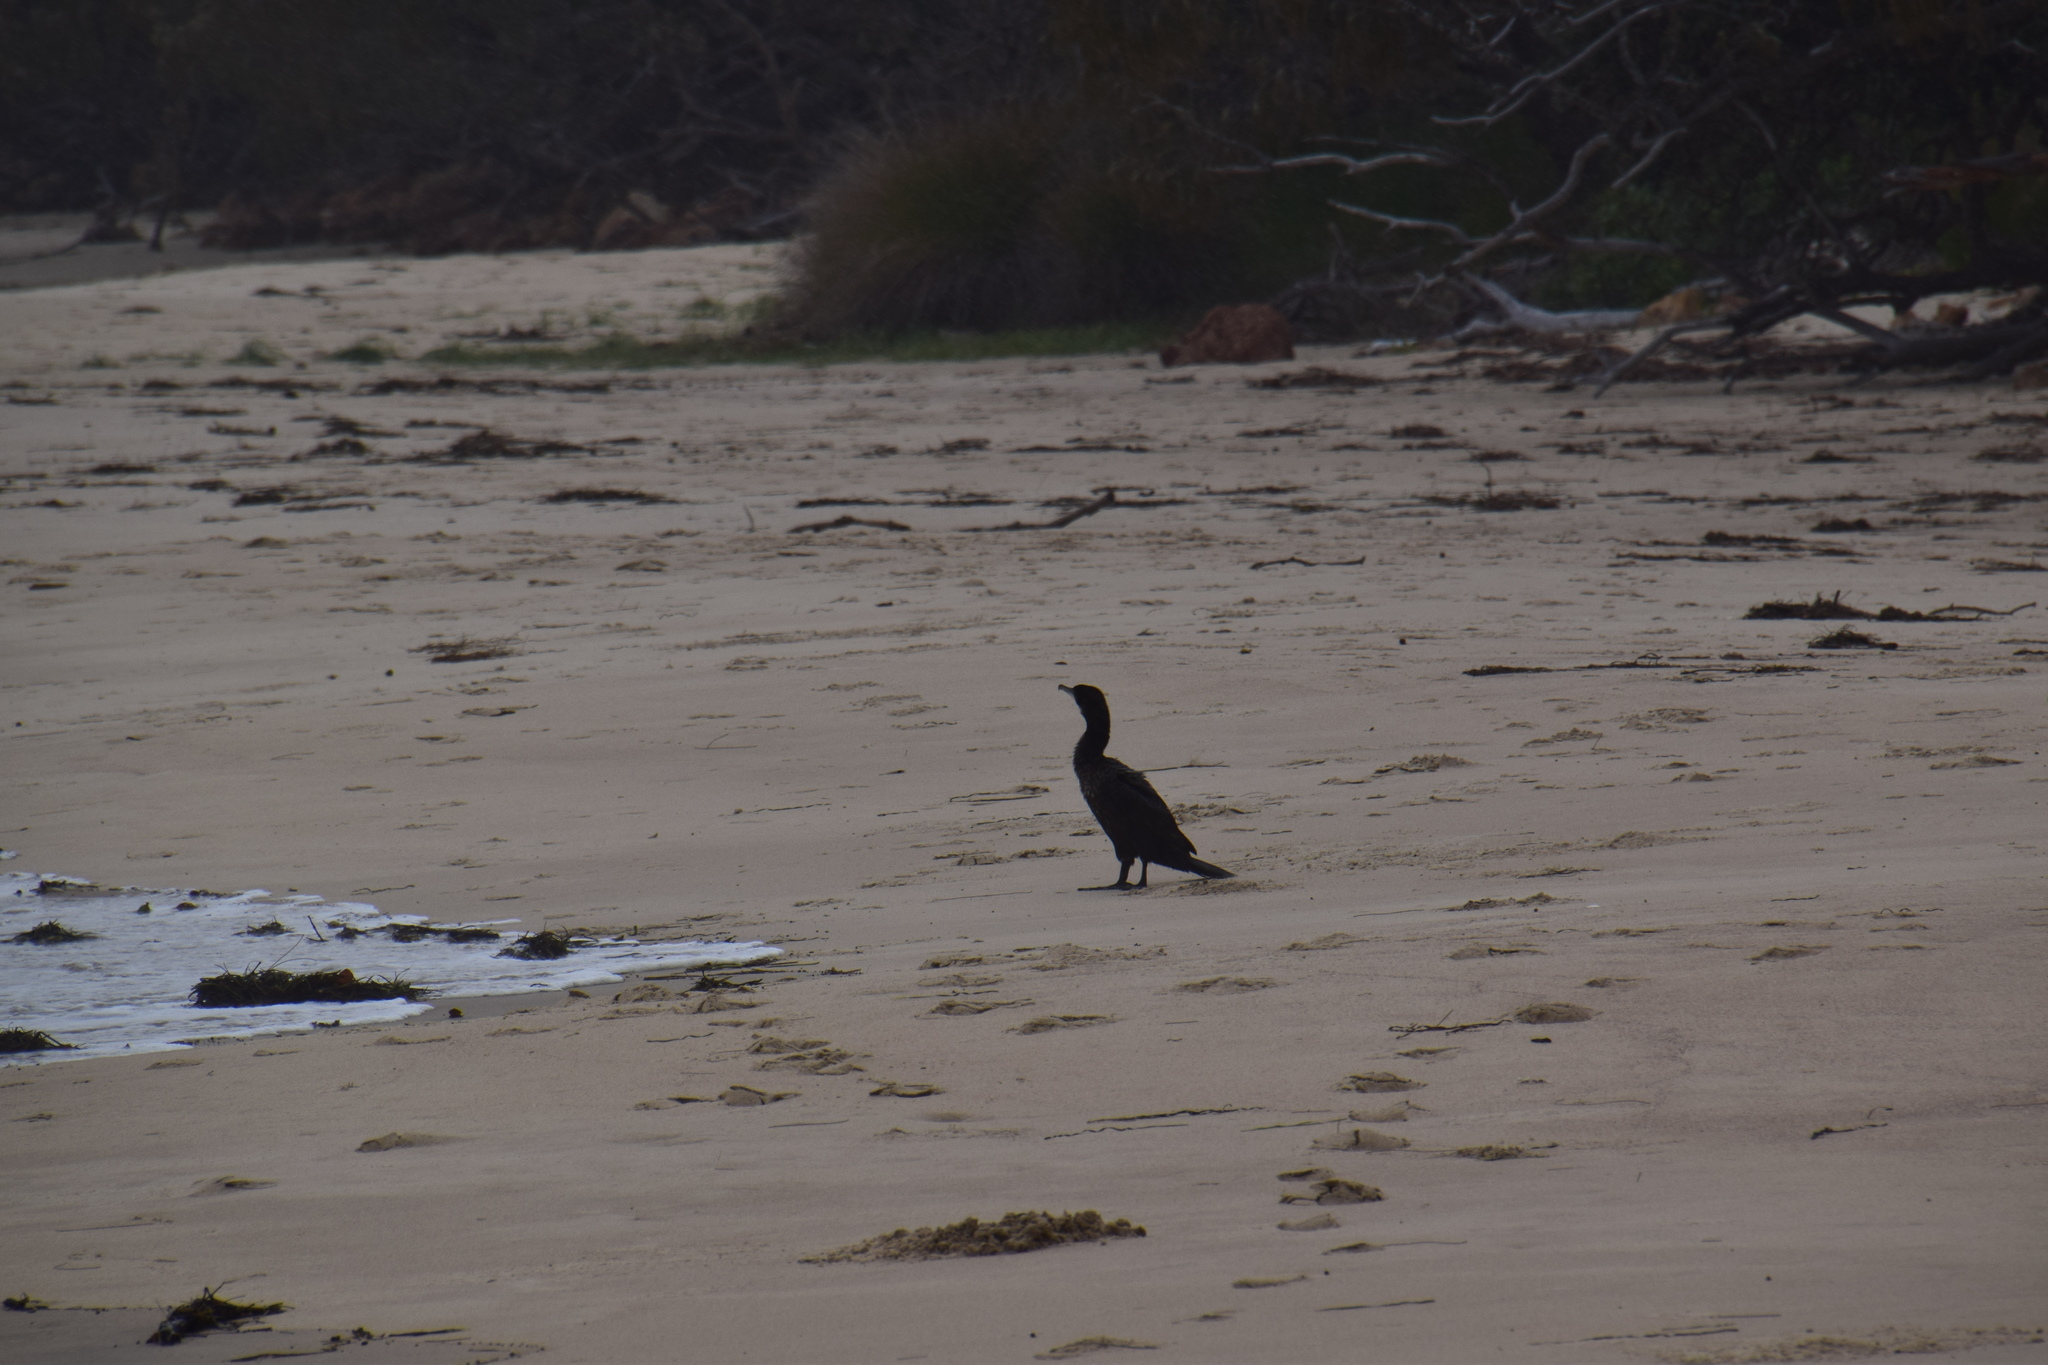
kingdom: Animalia
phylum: Chordata
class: Aves
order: Suliformes
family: Phalacrocoracidae
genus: Phalacrocorax
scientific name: Phalacrocorax carbo
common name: Great cormorant
